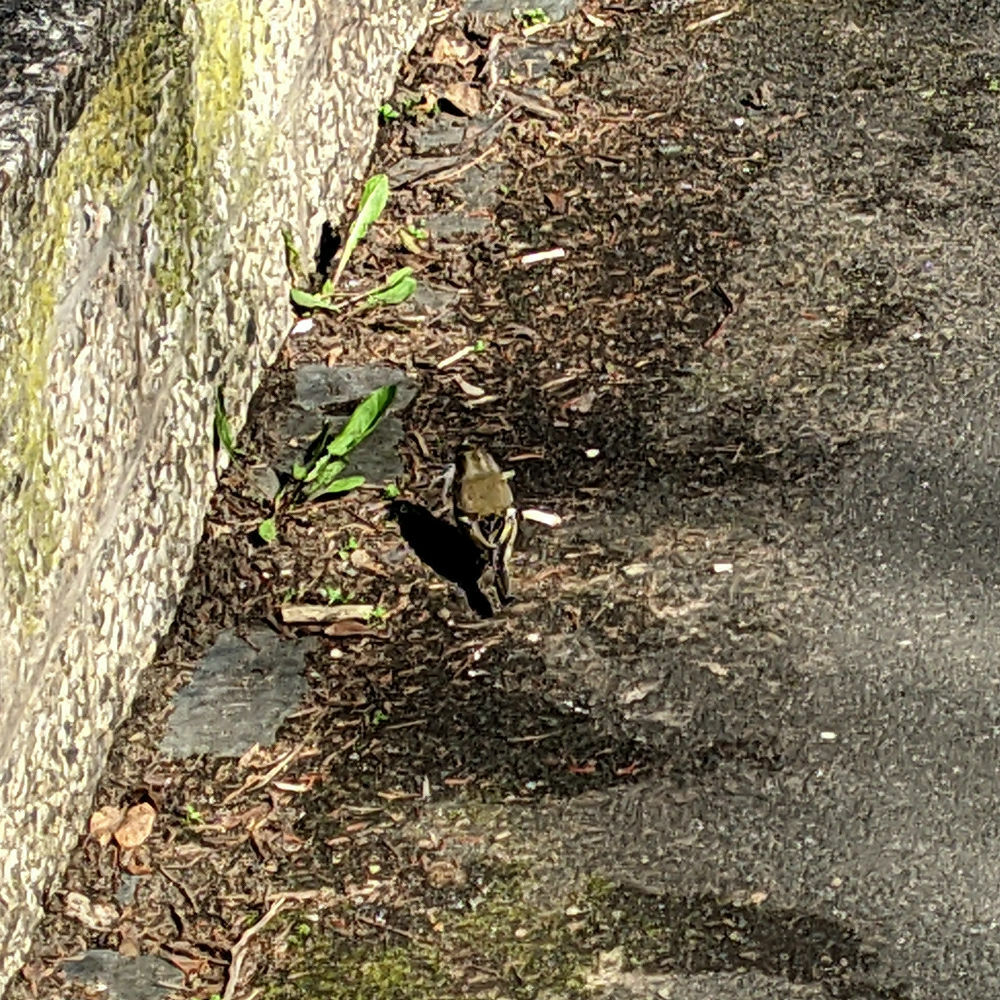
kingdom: Animalia
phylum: Chordata
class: Aves
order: Passeriformes
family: Fringillidae
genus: Fringilla
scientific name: Fringilla coelebs
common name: Common chaffinch
